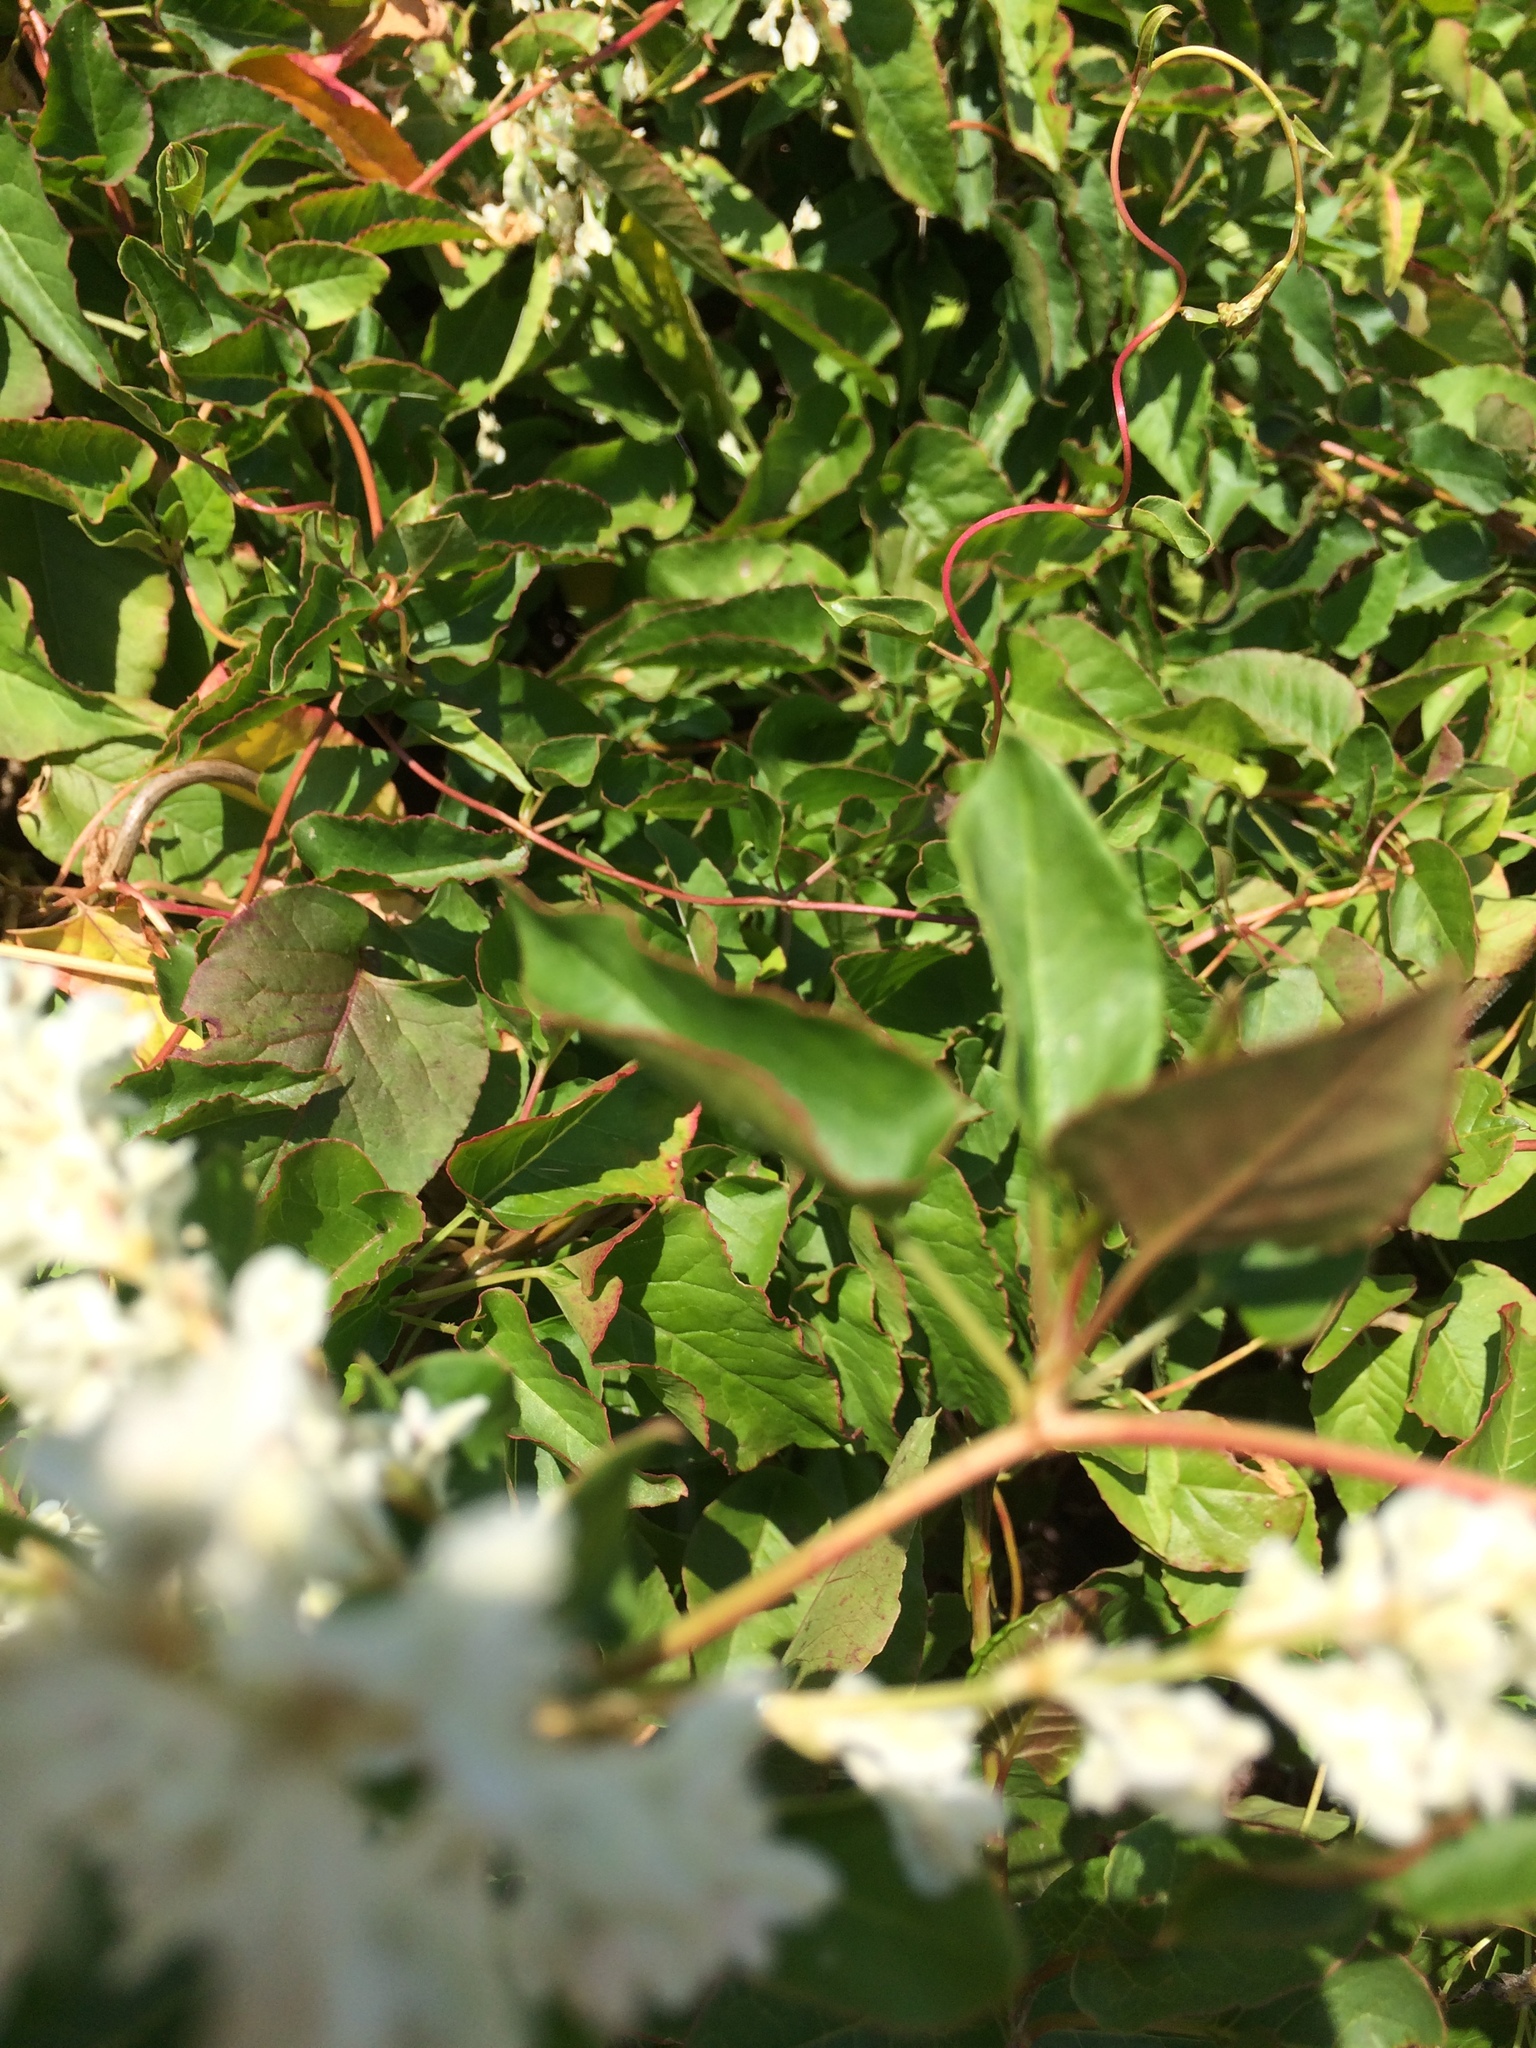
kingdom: Plantae
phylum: Tracheophyta
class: Magnoliopsida
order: Caryophyllales
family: Polygonaceae
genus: Fallopia
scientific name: Fallopia baldschuanica
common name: Russian-vine
